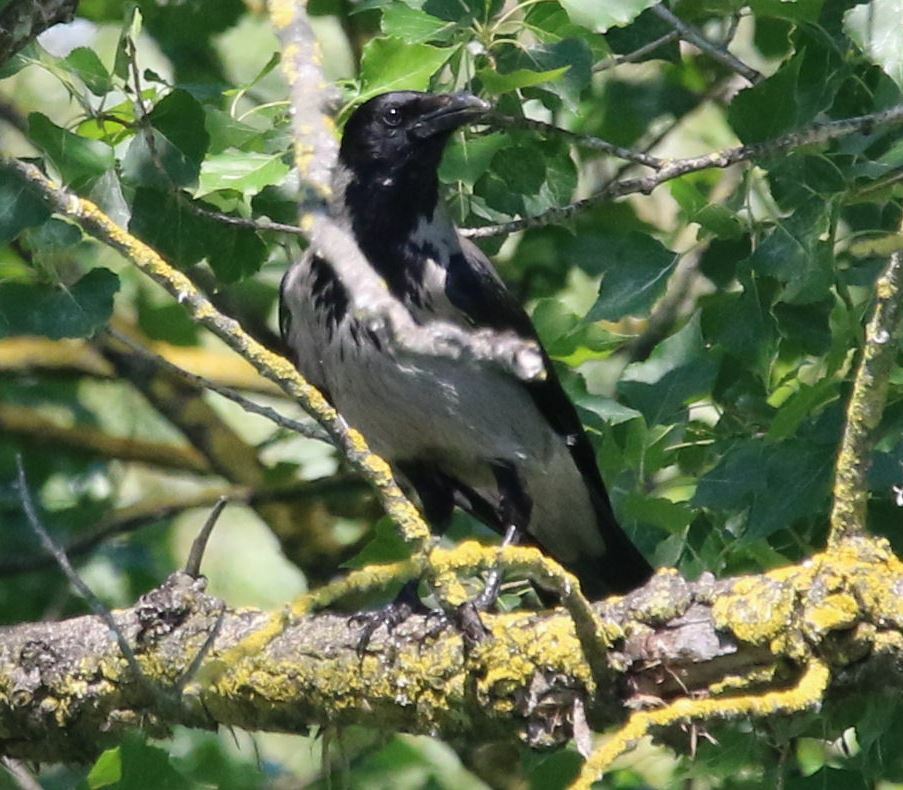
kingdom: Animalia
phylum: Chordata
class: Aves
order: Passeriformes
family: Corvidae
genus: Corvus
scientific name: Corvus cornix
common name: Hooded crow
